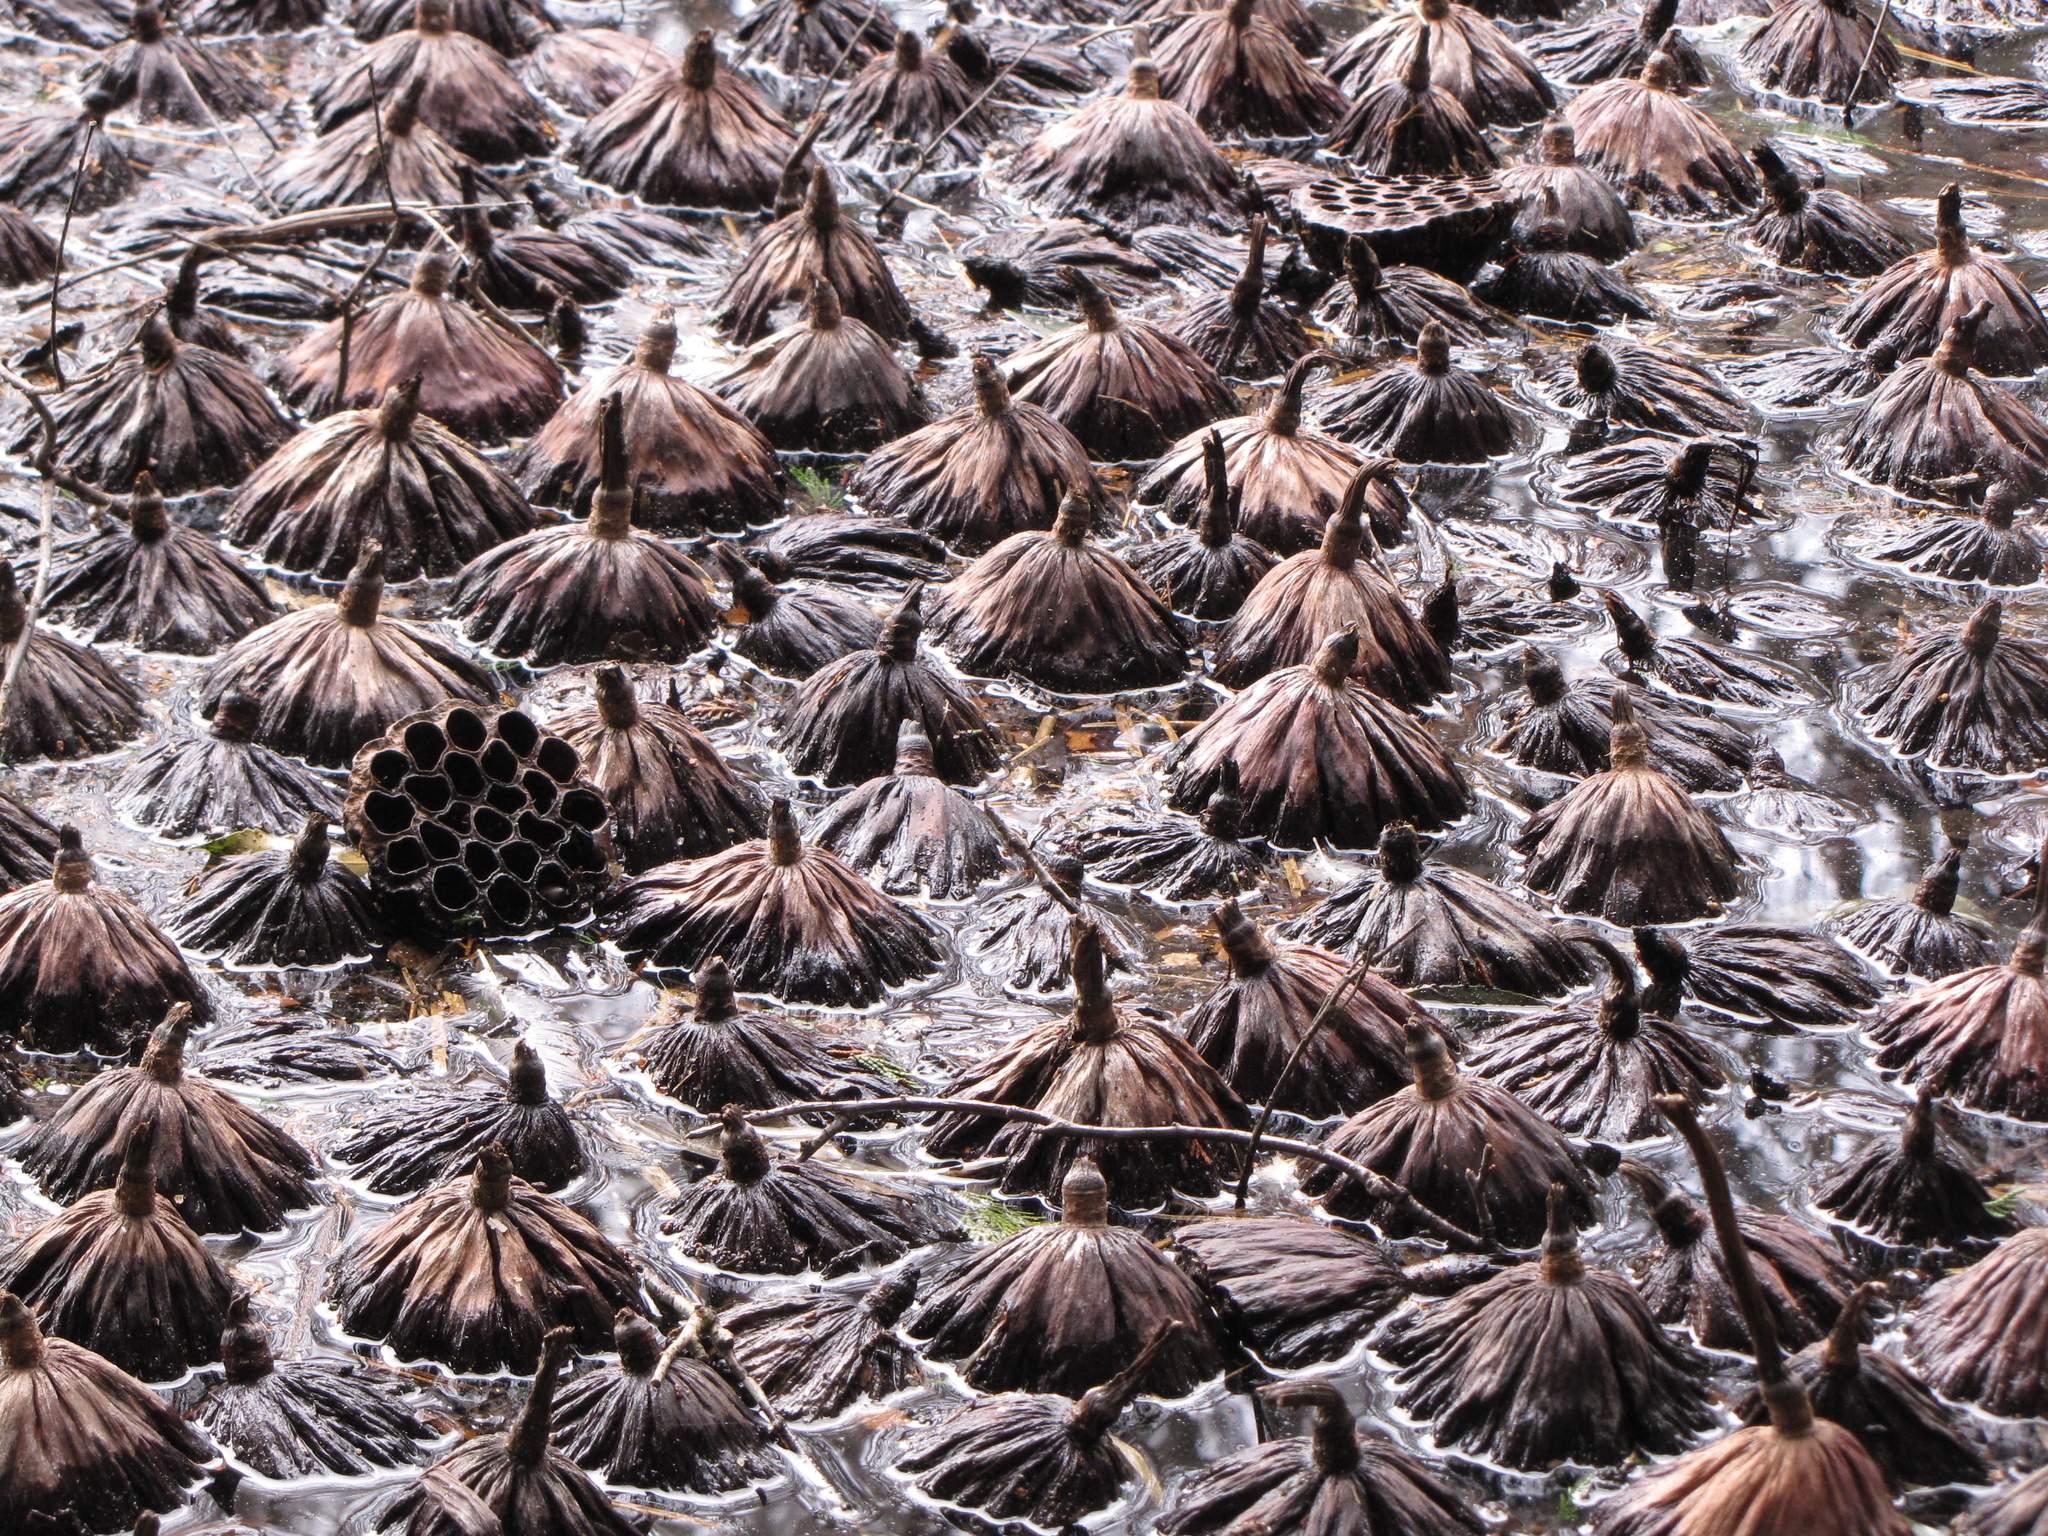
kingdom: Plantae
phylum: Tracheophyta
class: Magnoliopsida
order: Proteales
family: Nelumbonaceae
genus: Nelumbo
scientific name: Nelumbo nucifera
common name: Sacred lotus
